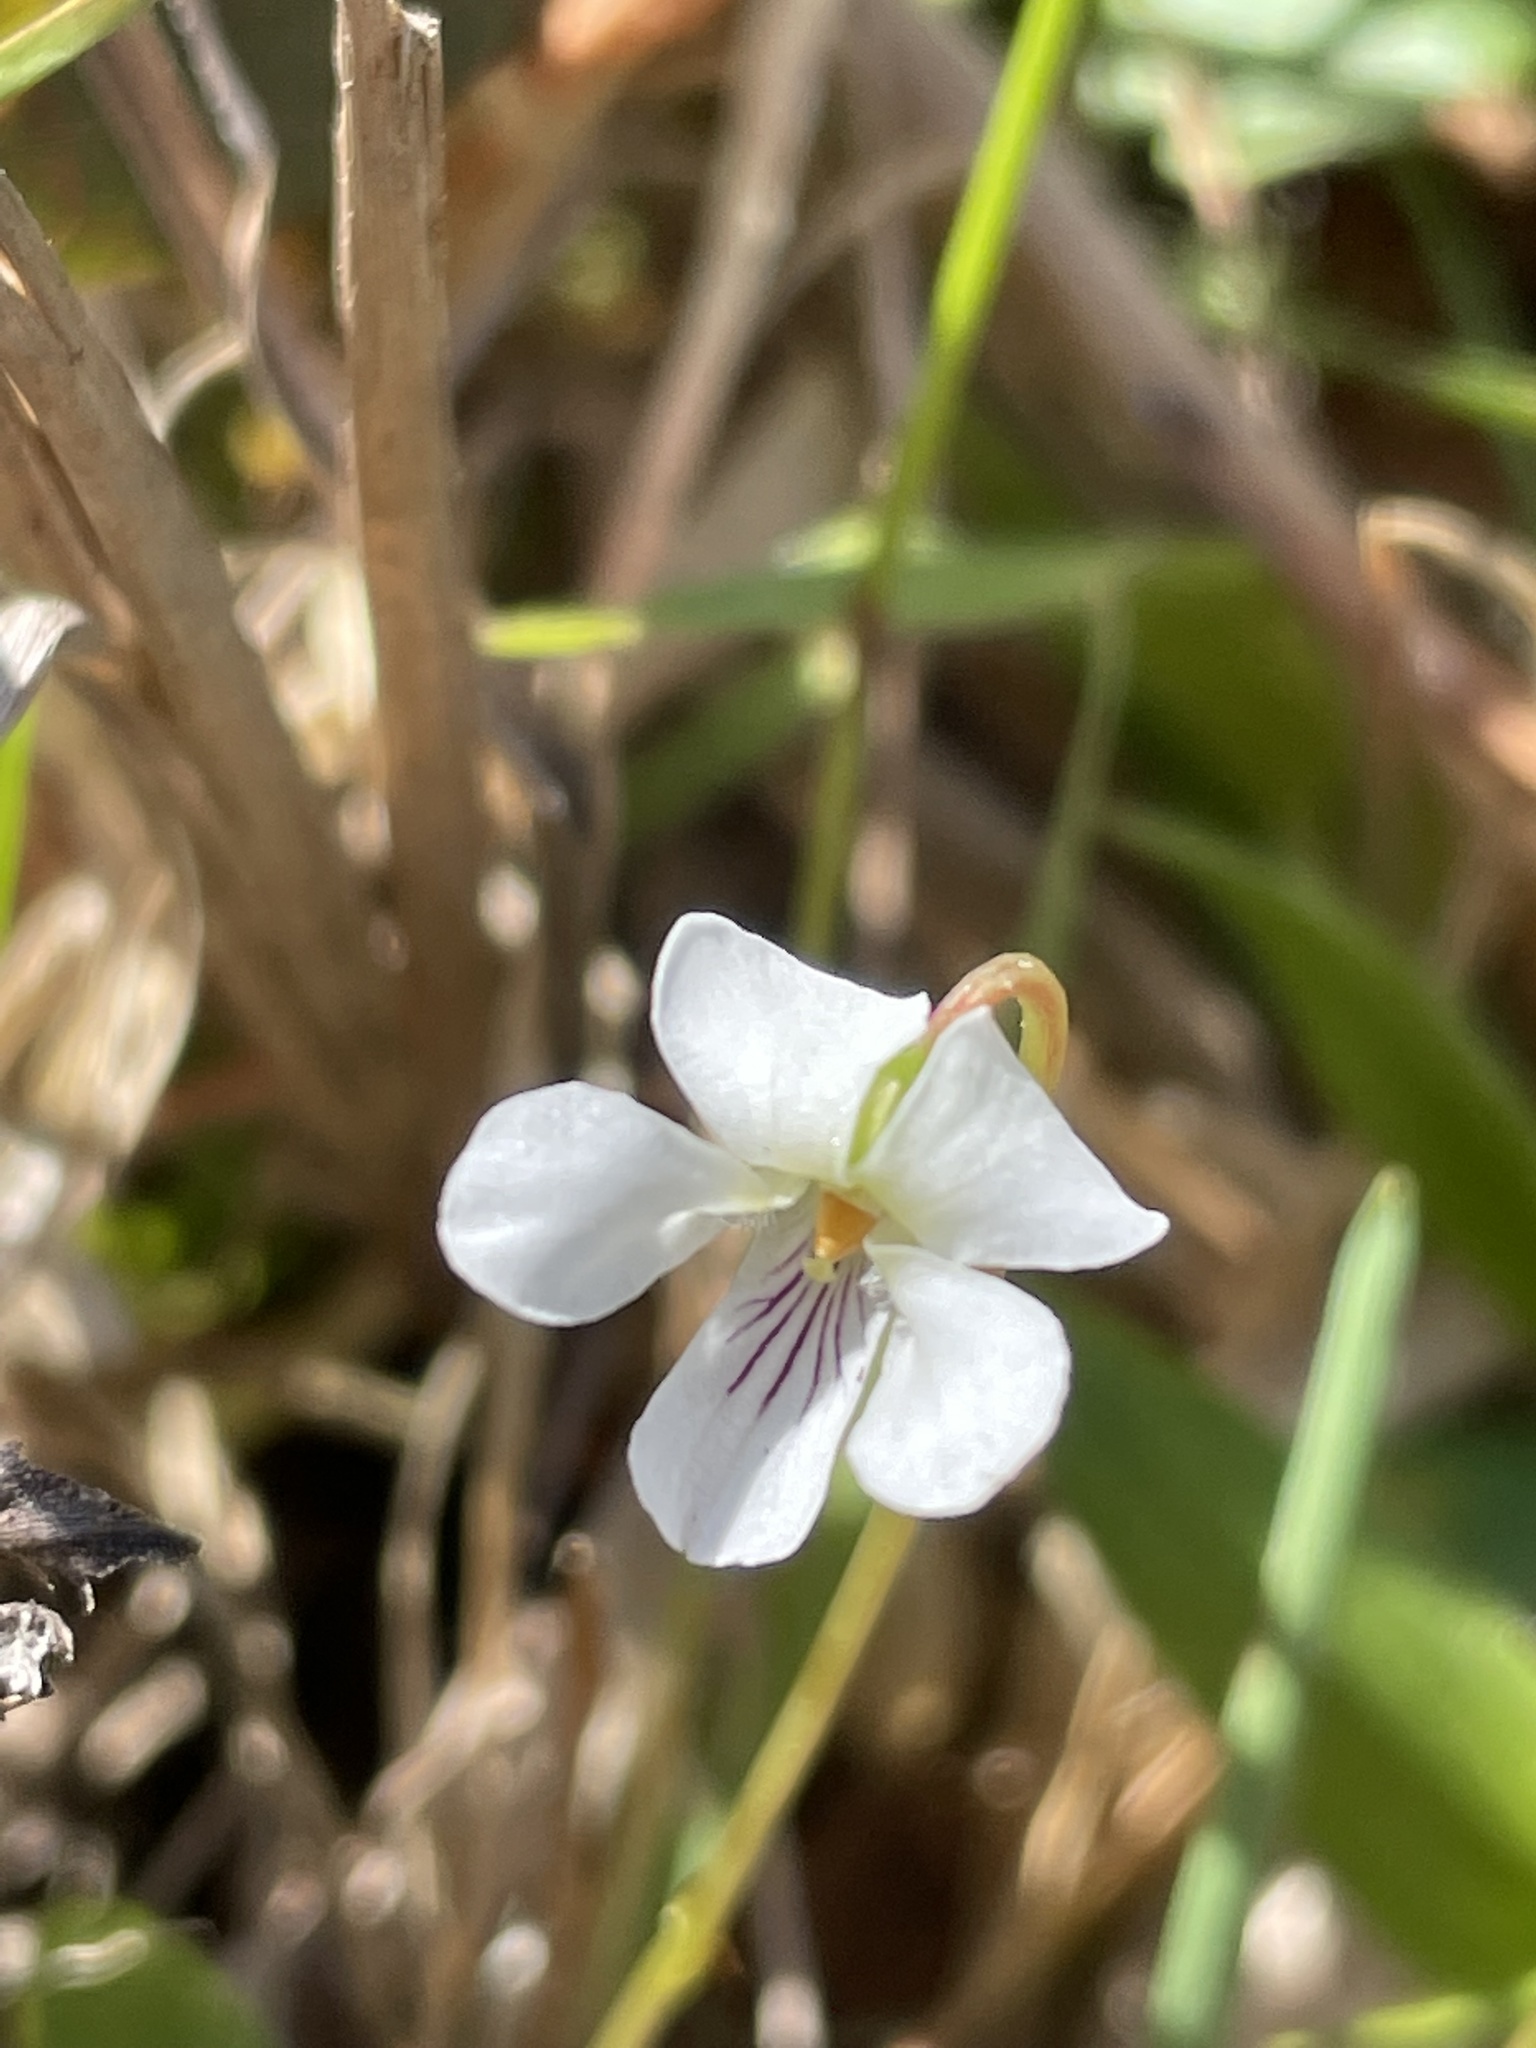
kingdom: Plantae
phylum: Tracheophyta
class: Magnoliopsida
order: Malpighiales
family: Violaceae
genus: Viola
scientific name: Viola primulifolia
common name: Primrose-leaf violet
